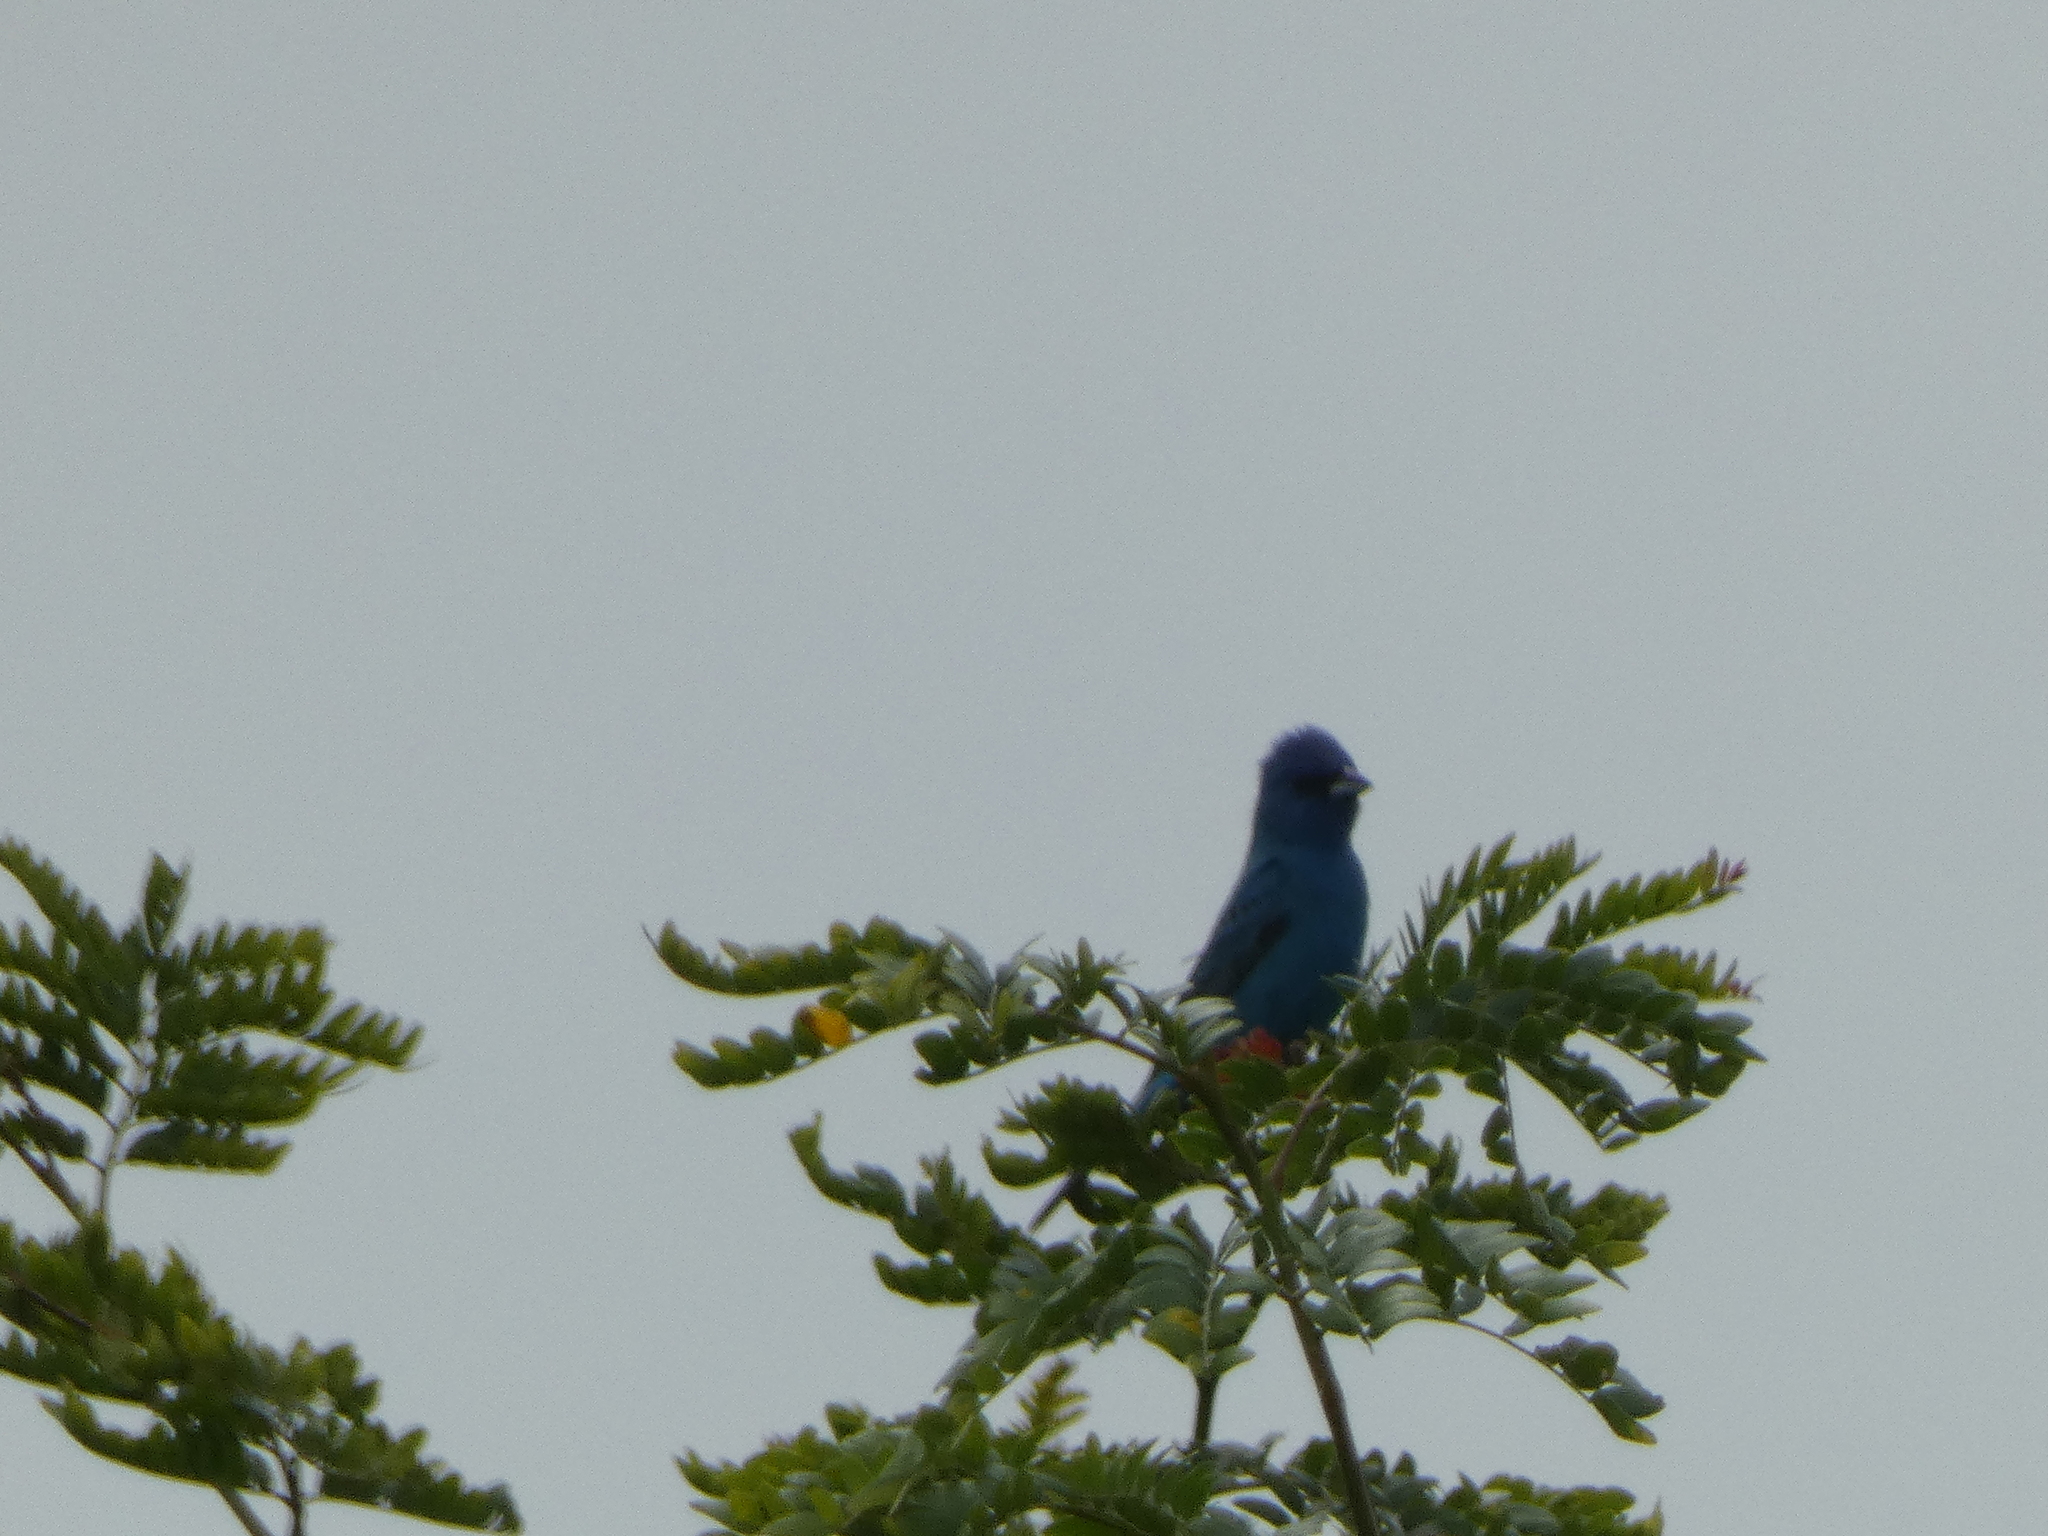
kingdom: Animalia
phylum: Chordata
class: Aves
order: Passeriformes
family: Cardinalidae
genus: Passerina
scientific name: Passerina cyanea
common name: Indigo bunting
